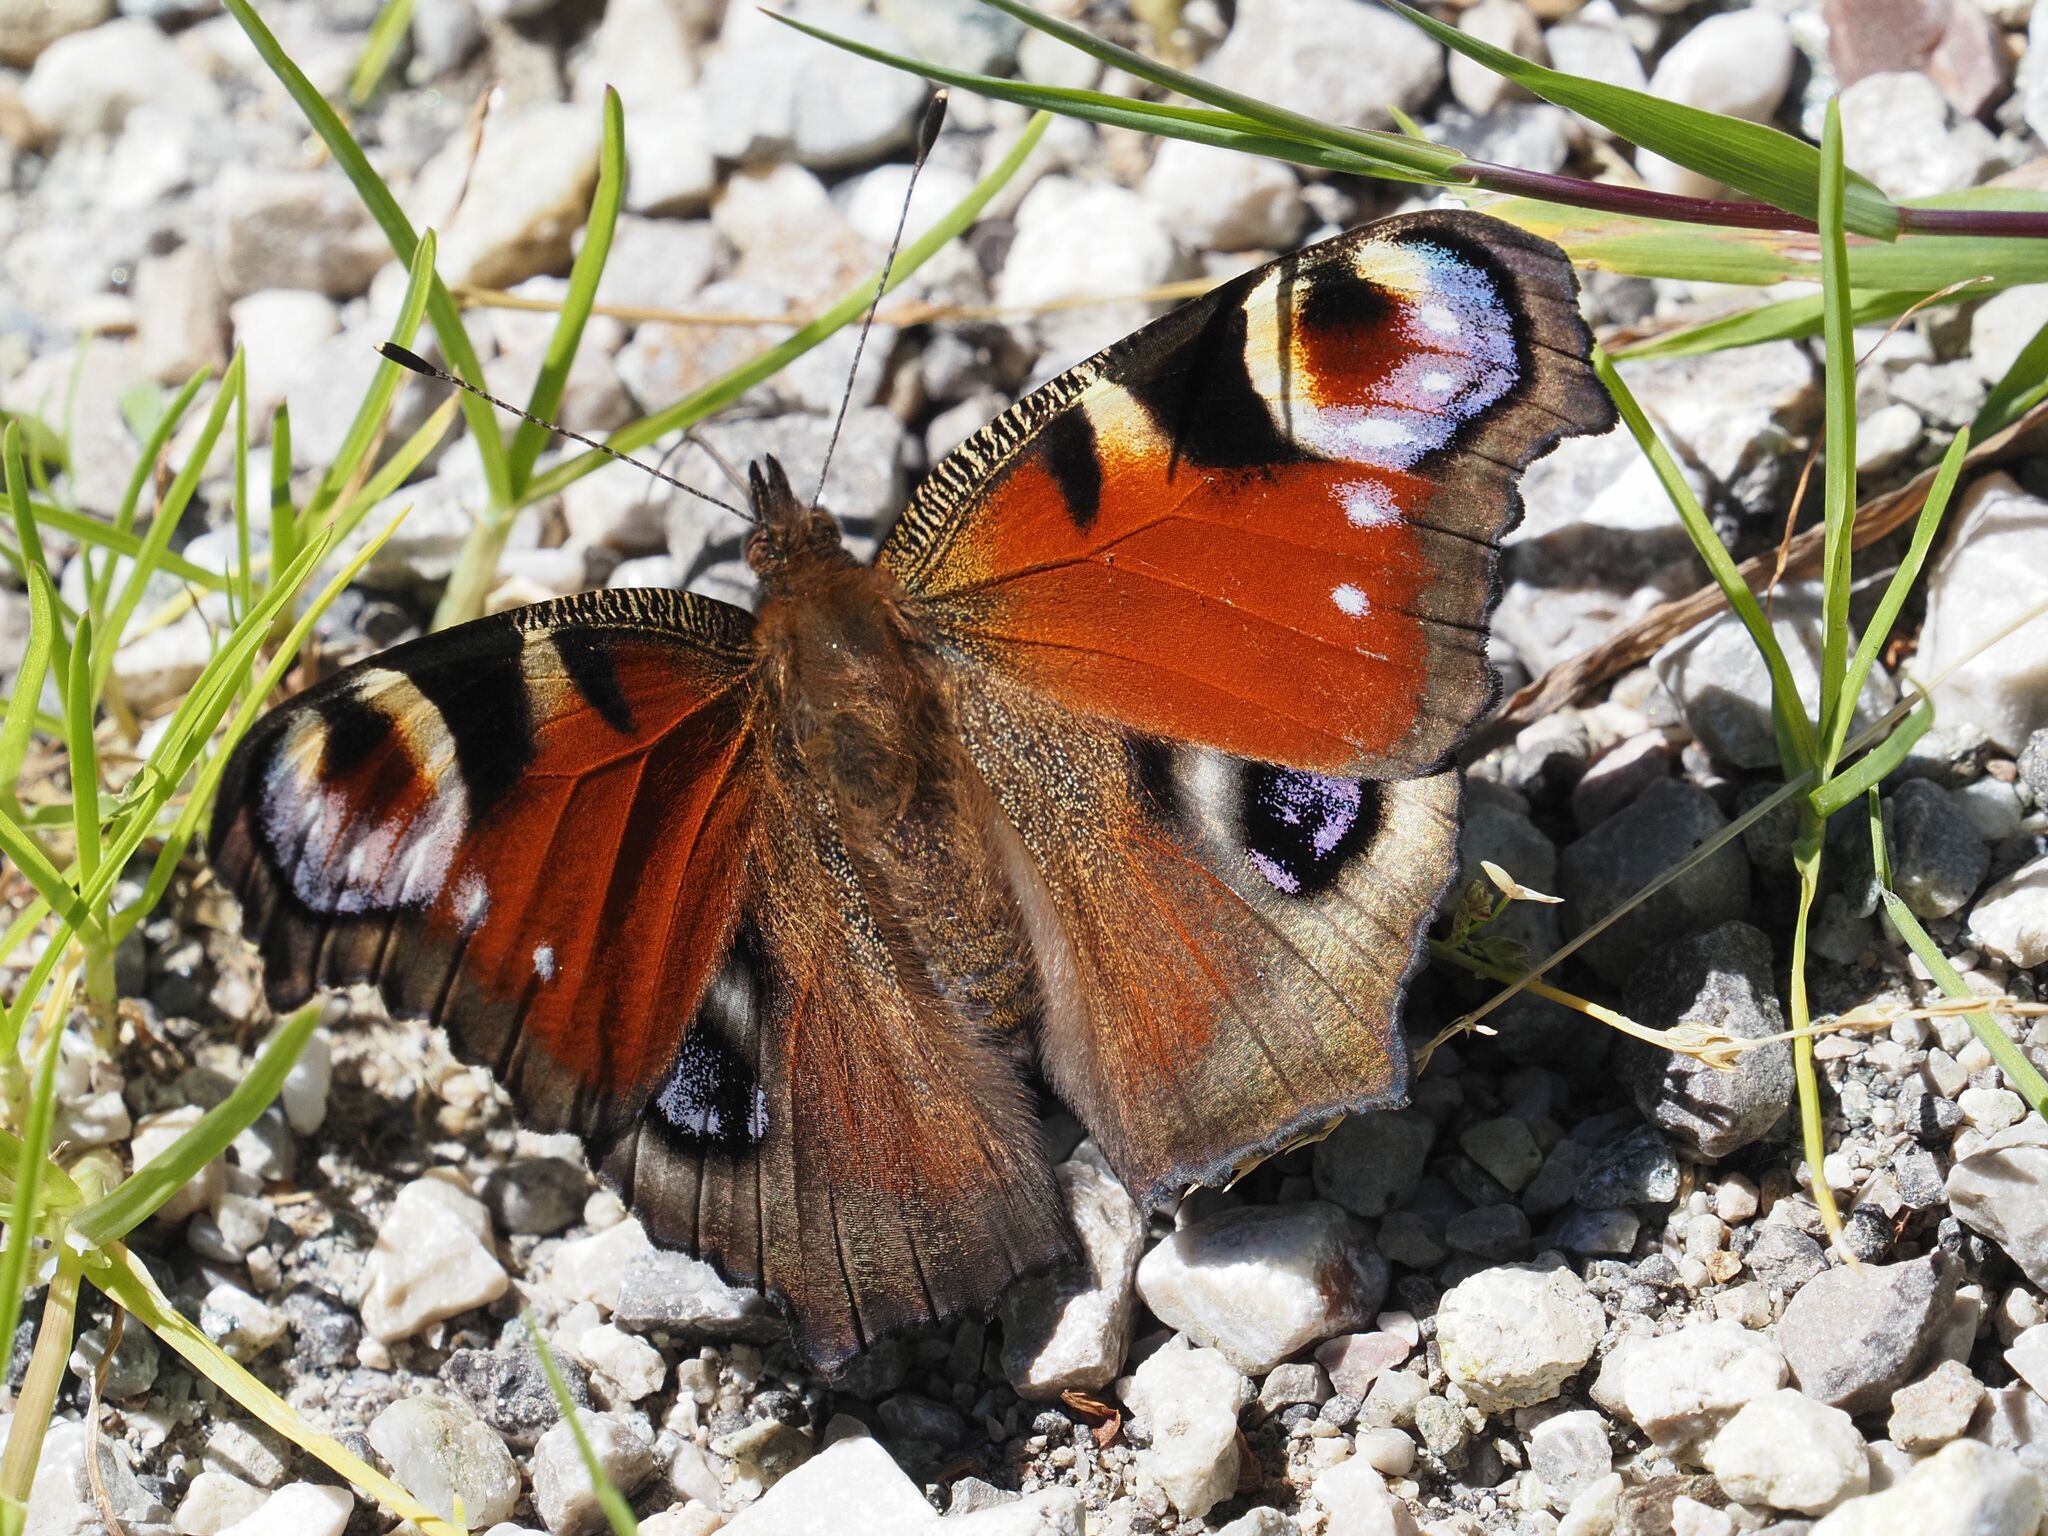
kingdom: Animalia
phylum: Arthropoda
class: Insecta
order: Lepidoptera
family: Nymphalidae
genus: Aglais
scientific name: Aglais io
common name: Peacock
